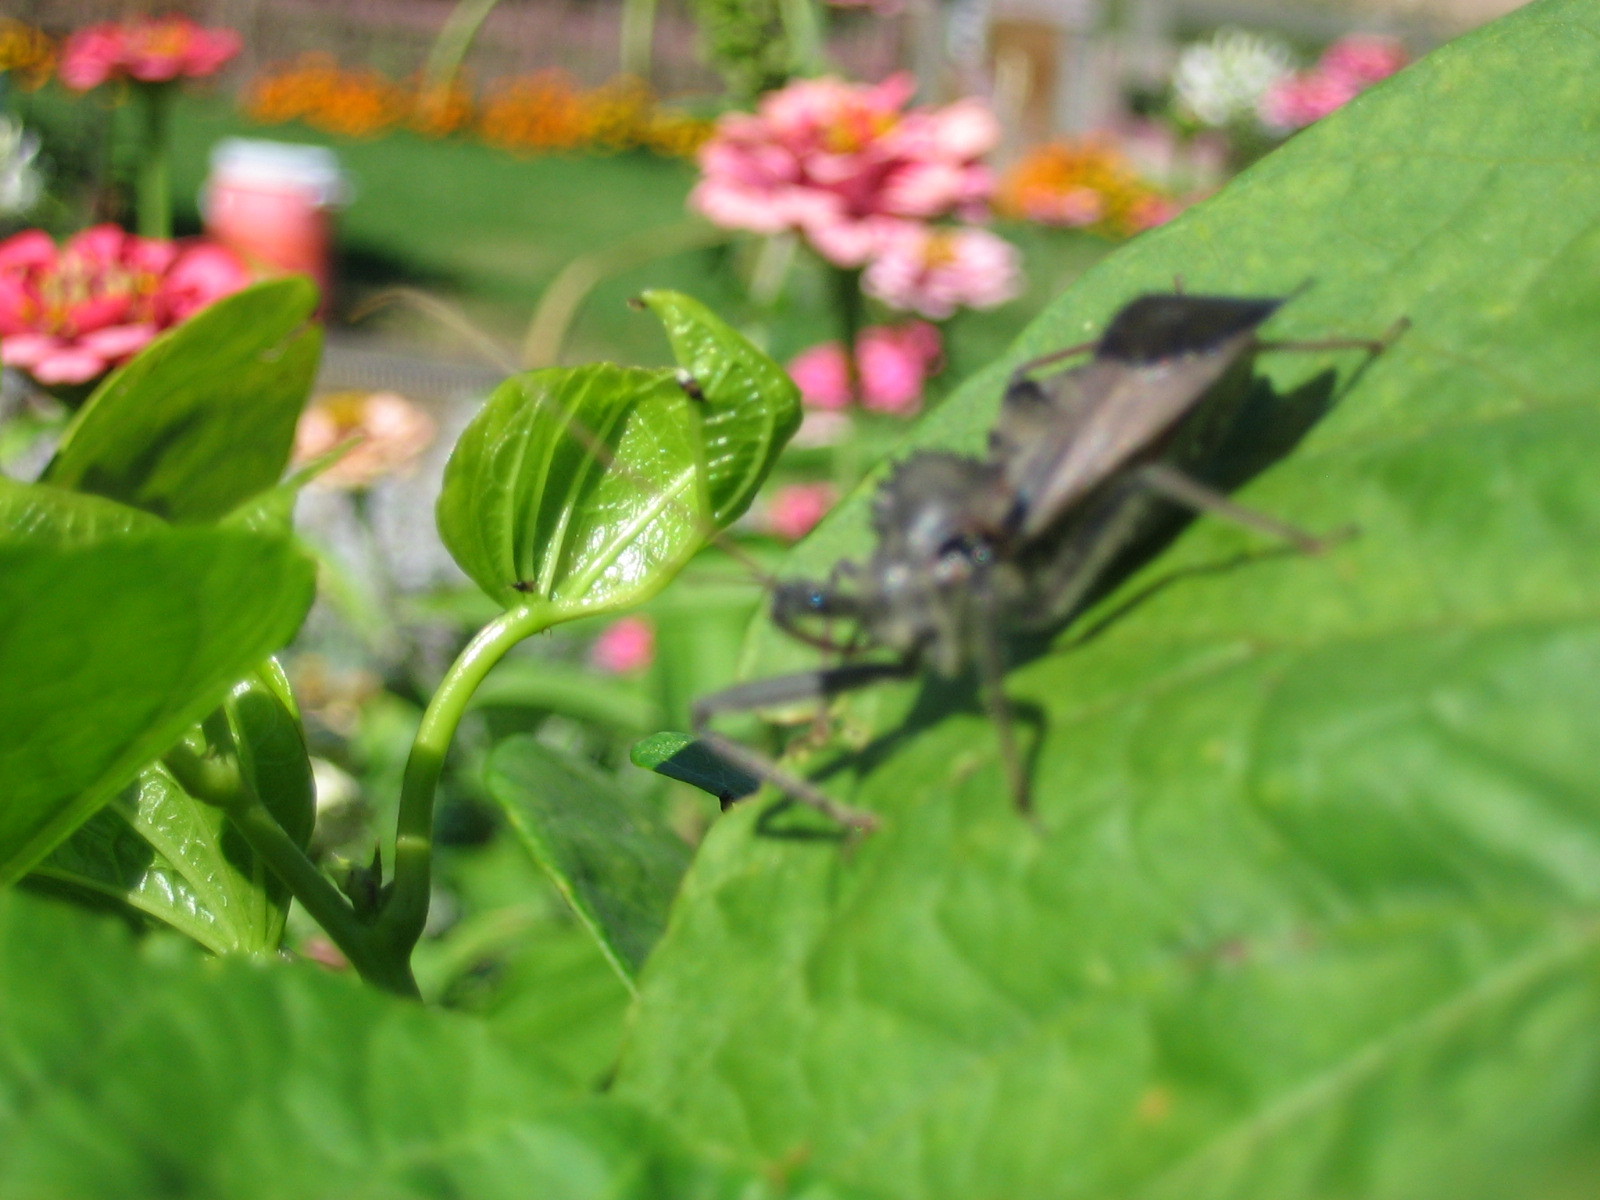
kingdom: Animalia
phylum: Arthropoda
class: Insecta
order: Hemiptera
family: Reduviidae
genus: Arilus
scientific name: Arilus cristatus
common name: North american wheel bug
